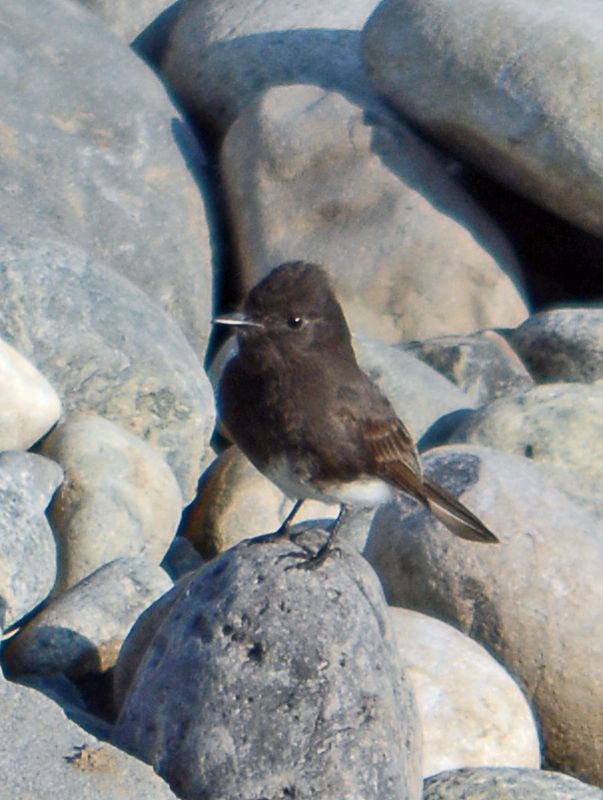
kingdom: Animalia
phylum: Chordata
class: Aves
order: Passeriformes
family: Tyrannidae
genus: Sayornis
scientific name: Sayornis nigricans
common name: Black phoebe
